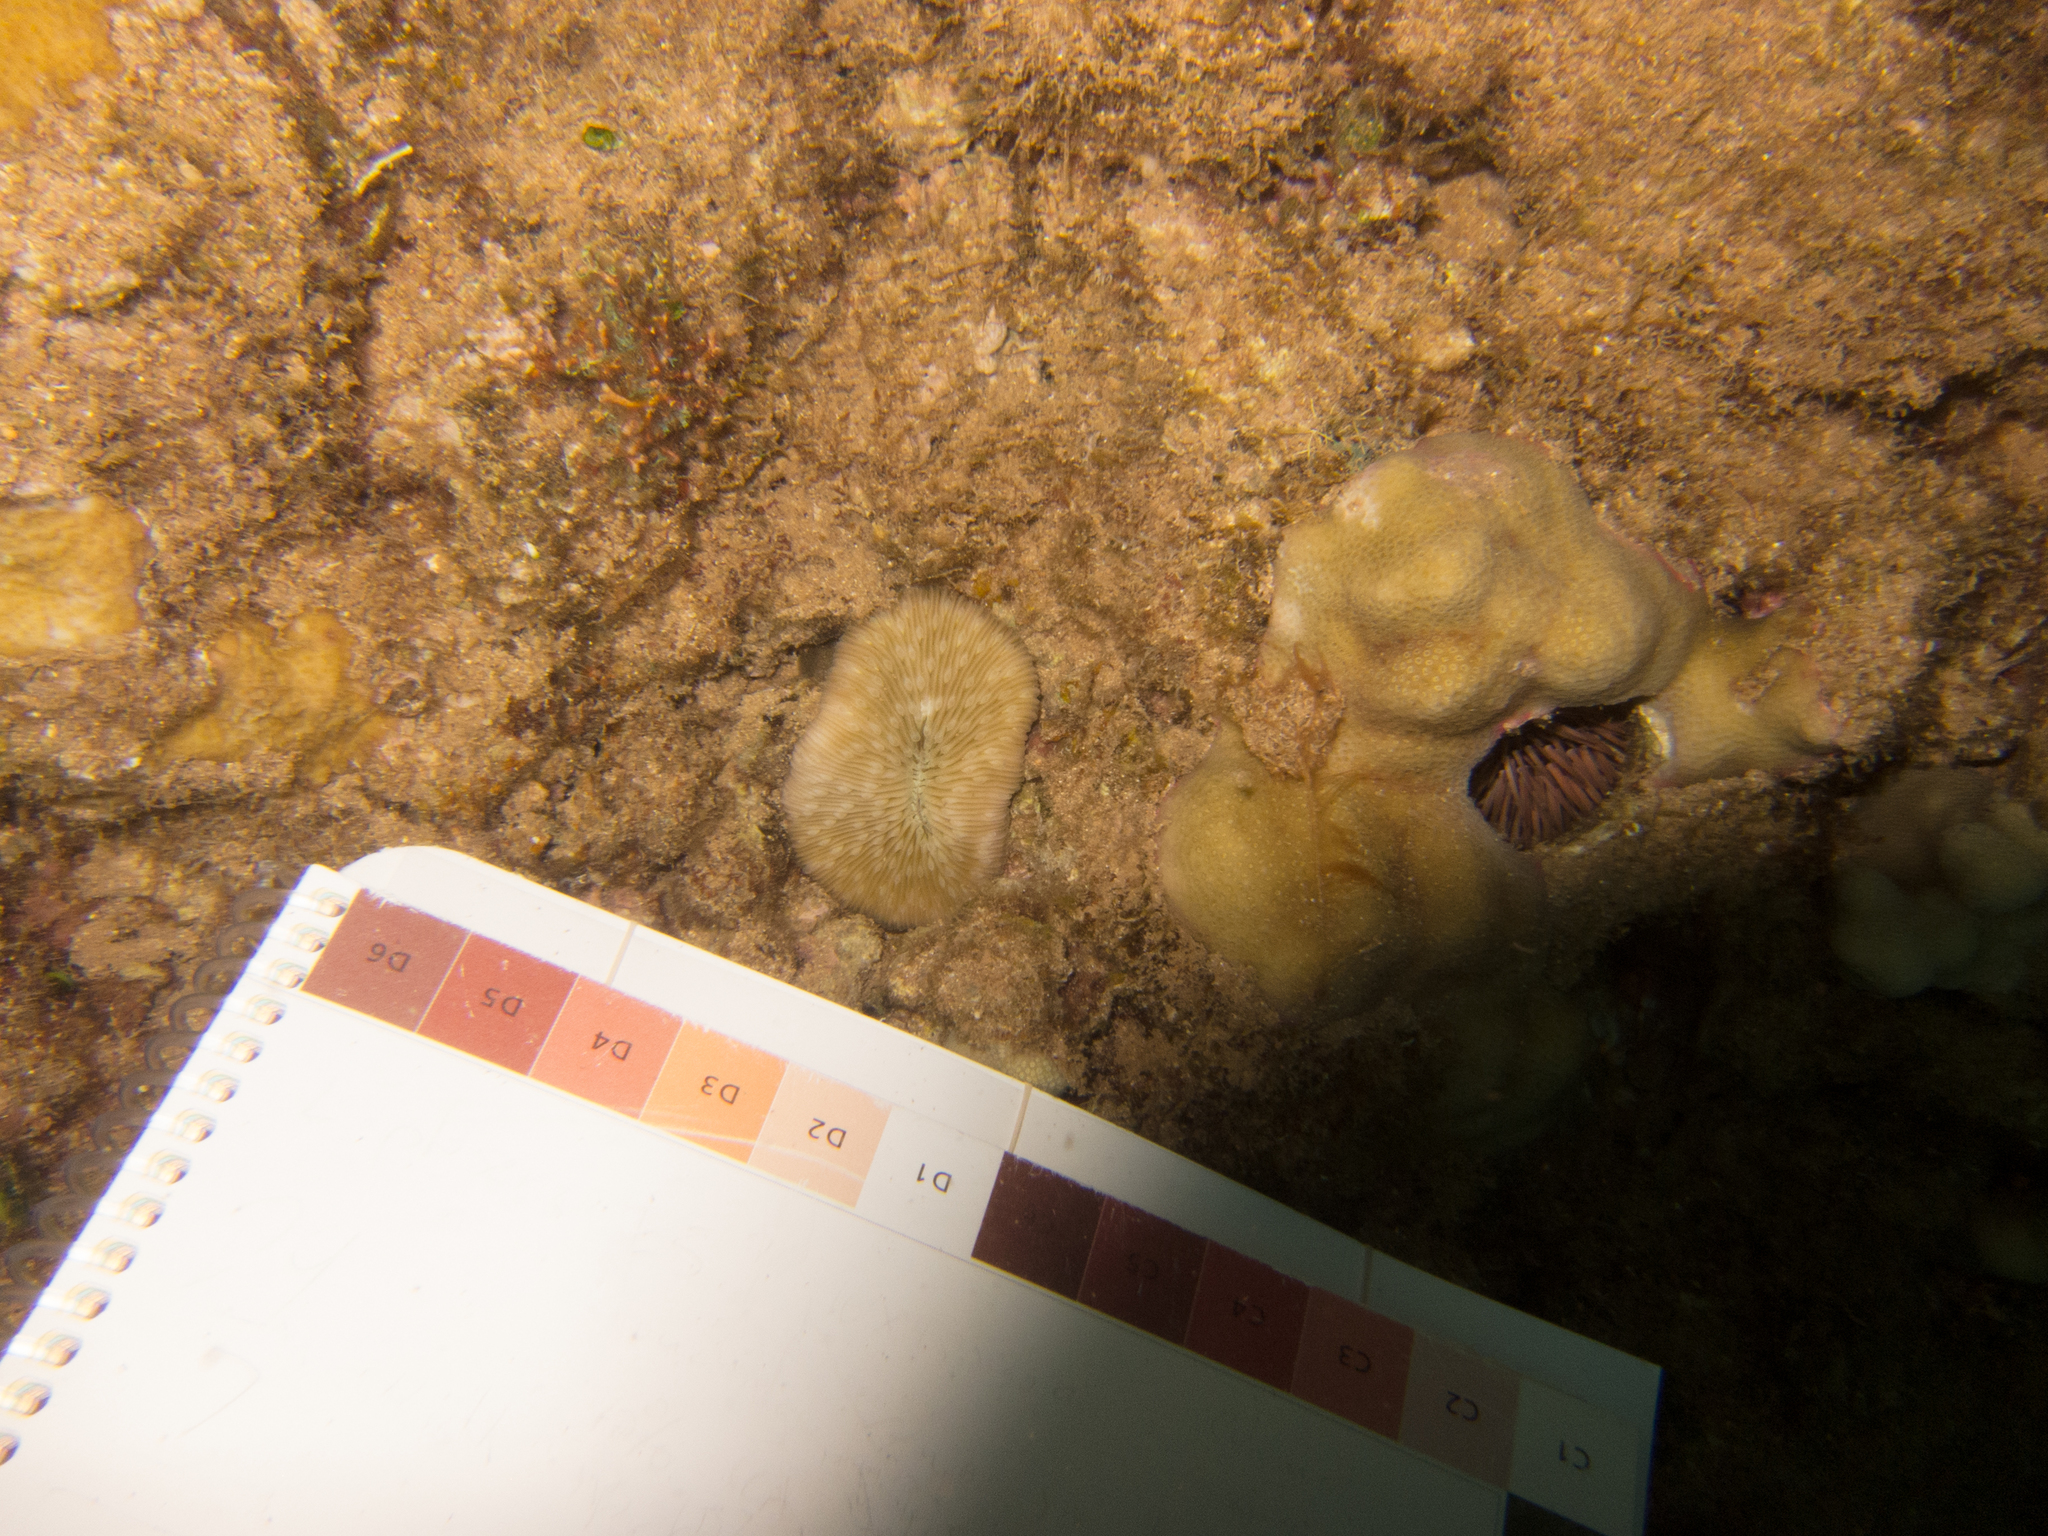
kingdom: Animalia
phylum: Echinodermata
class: Echinoidea
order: Camarodonta
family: Echinometridae
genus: Echinometra
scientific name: Echinometra mathaei
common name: Rock-boring urchin
